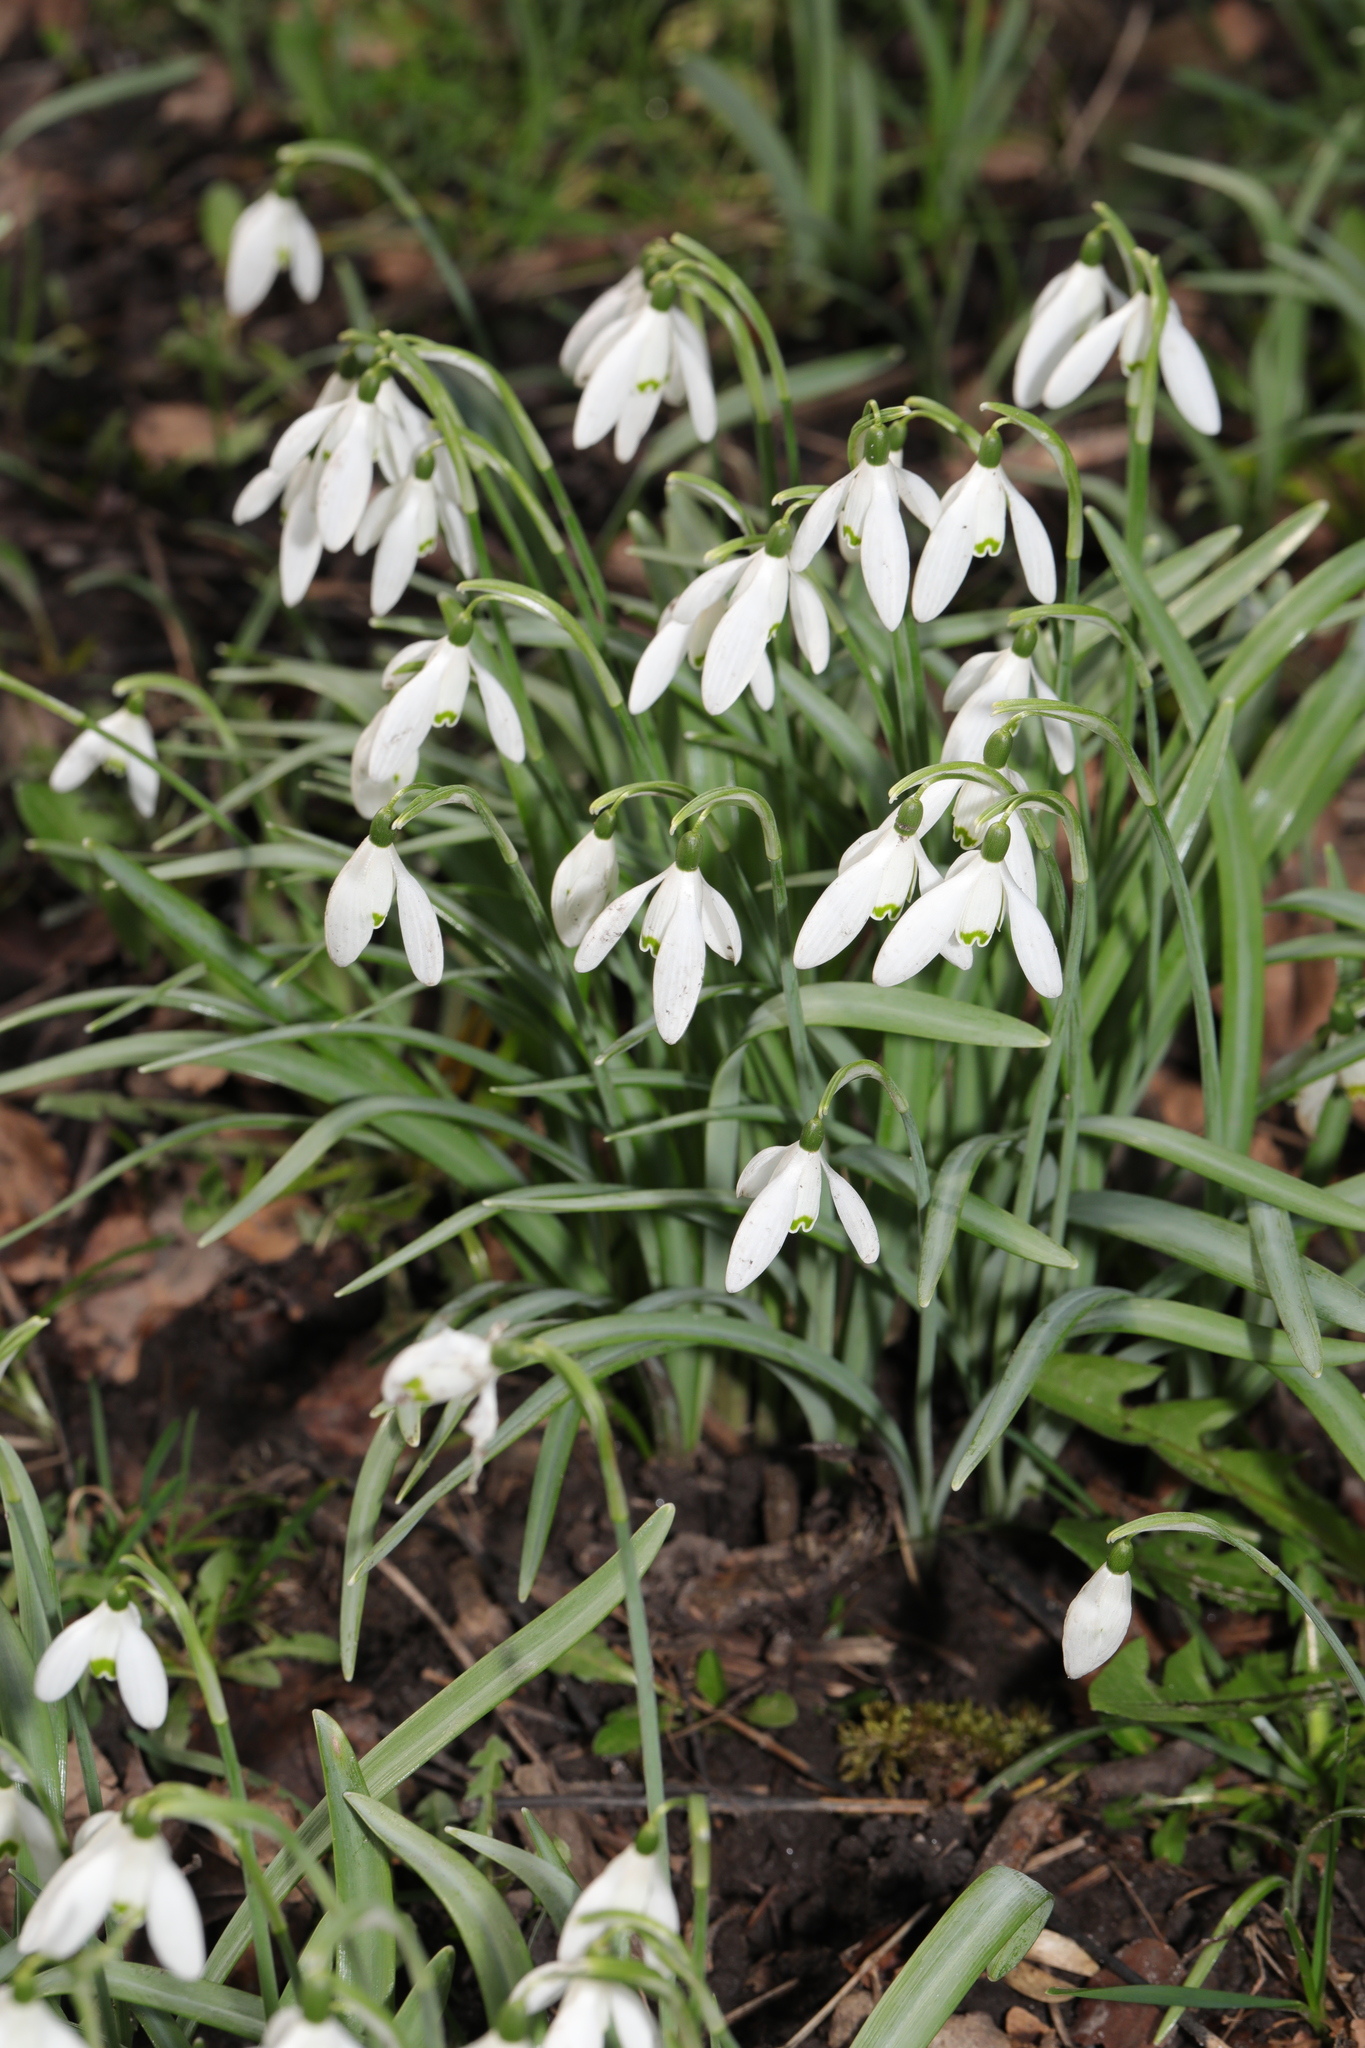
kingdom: Plantae
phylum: Tracheophyta
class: Liliopsida
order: Asparagales
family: Amaryllidaceae
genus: Galanthus
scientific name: Galanthus nivalis
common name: Snowdrop
